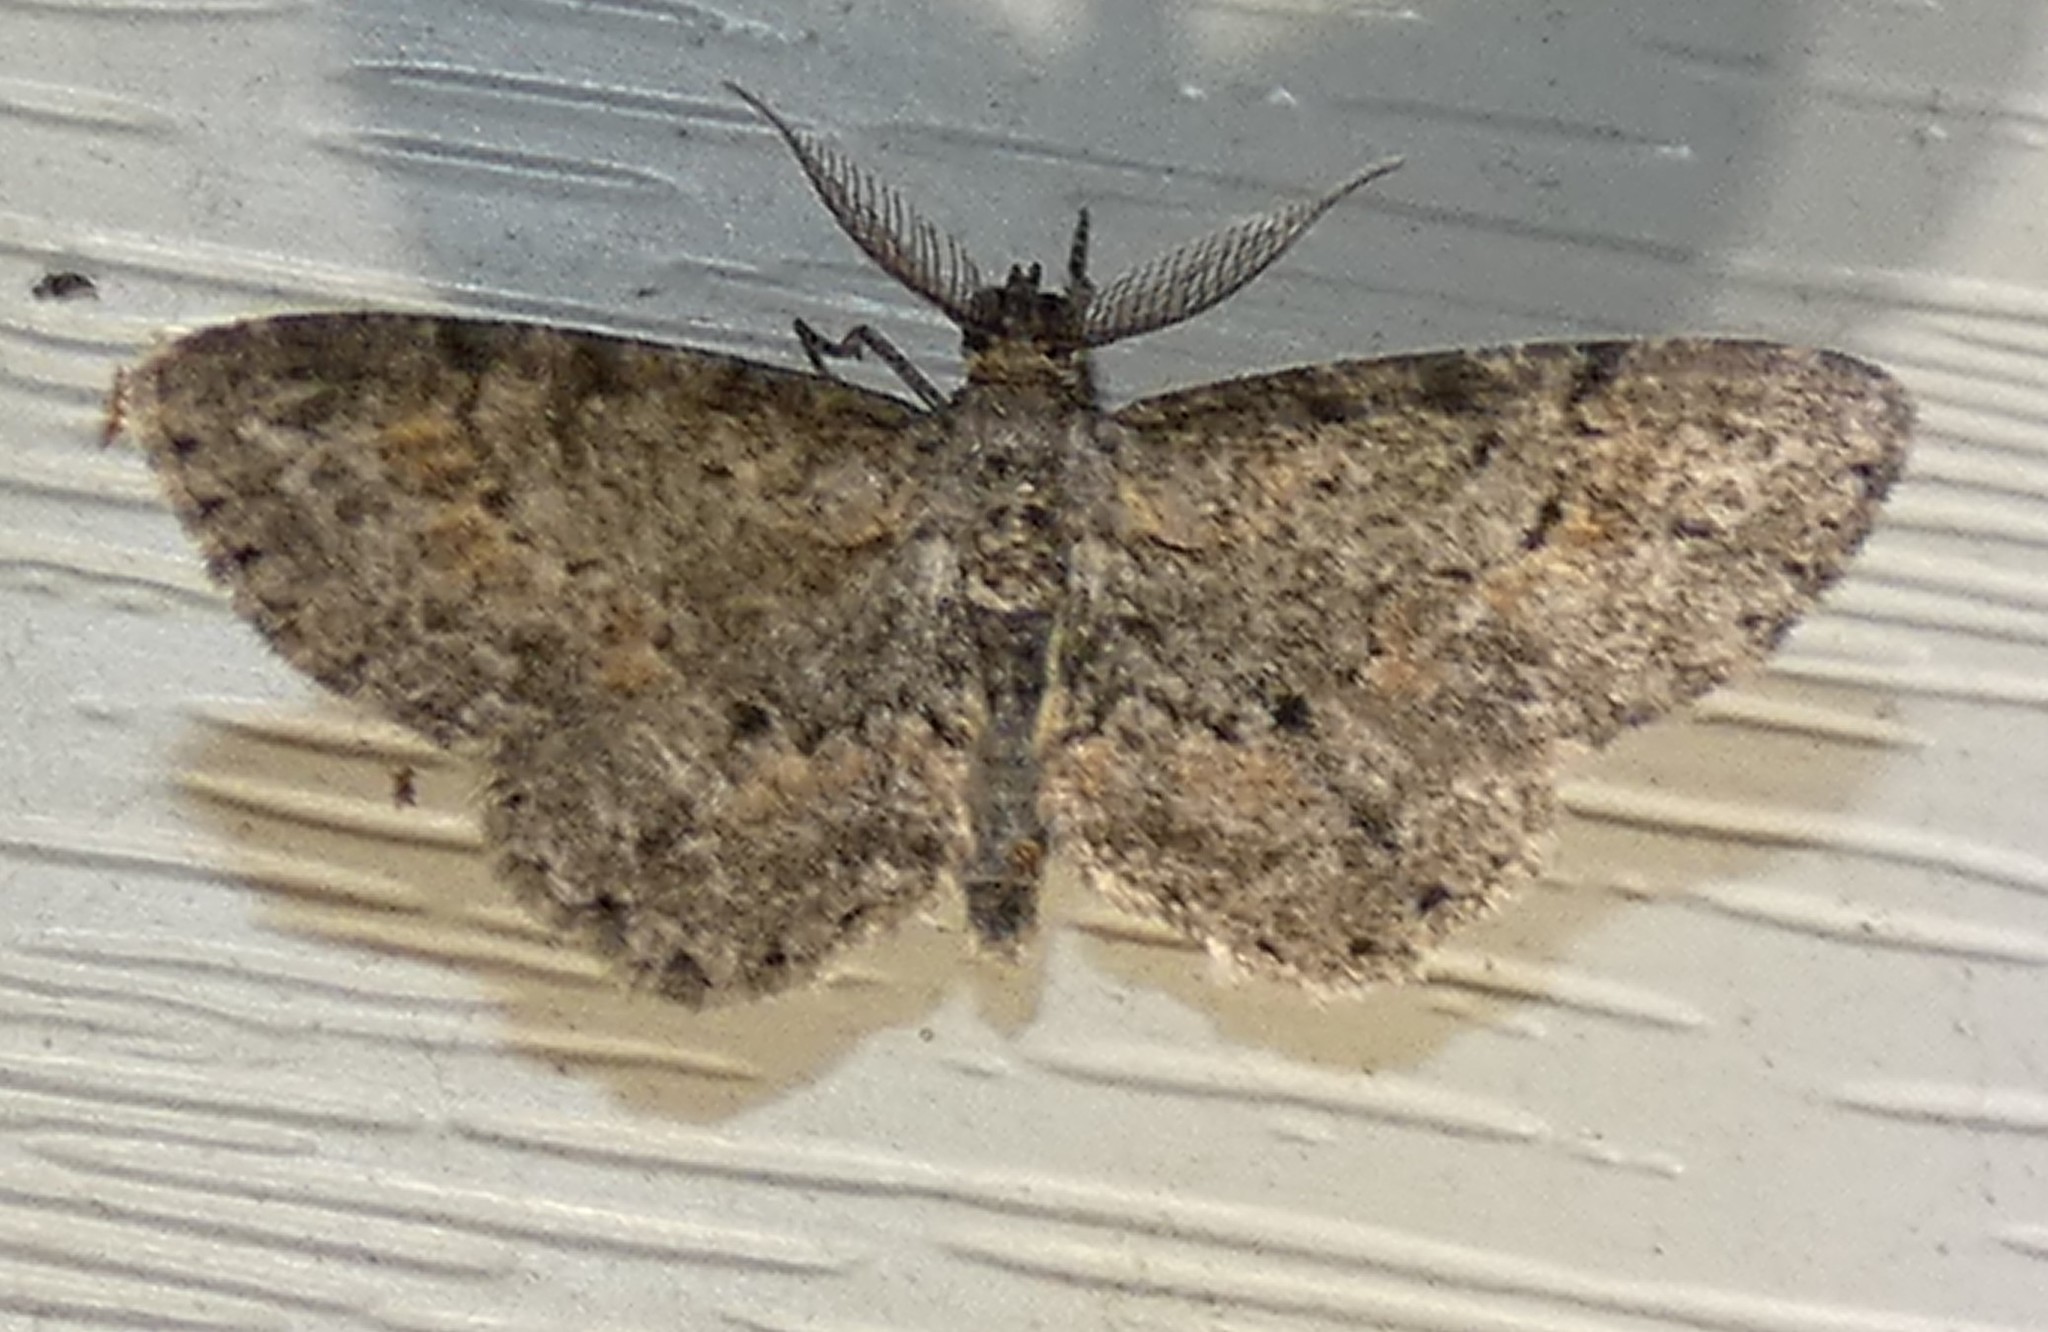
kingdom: Animalia
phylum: Arthropoda
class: Insecta
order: Lepidoptera
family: Geometridae
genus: Glenoides
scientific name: Glenoides texanaria
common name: Texas gray
